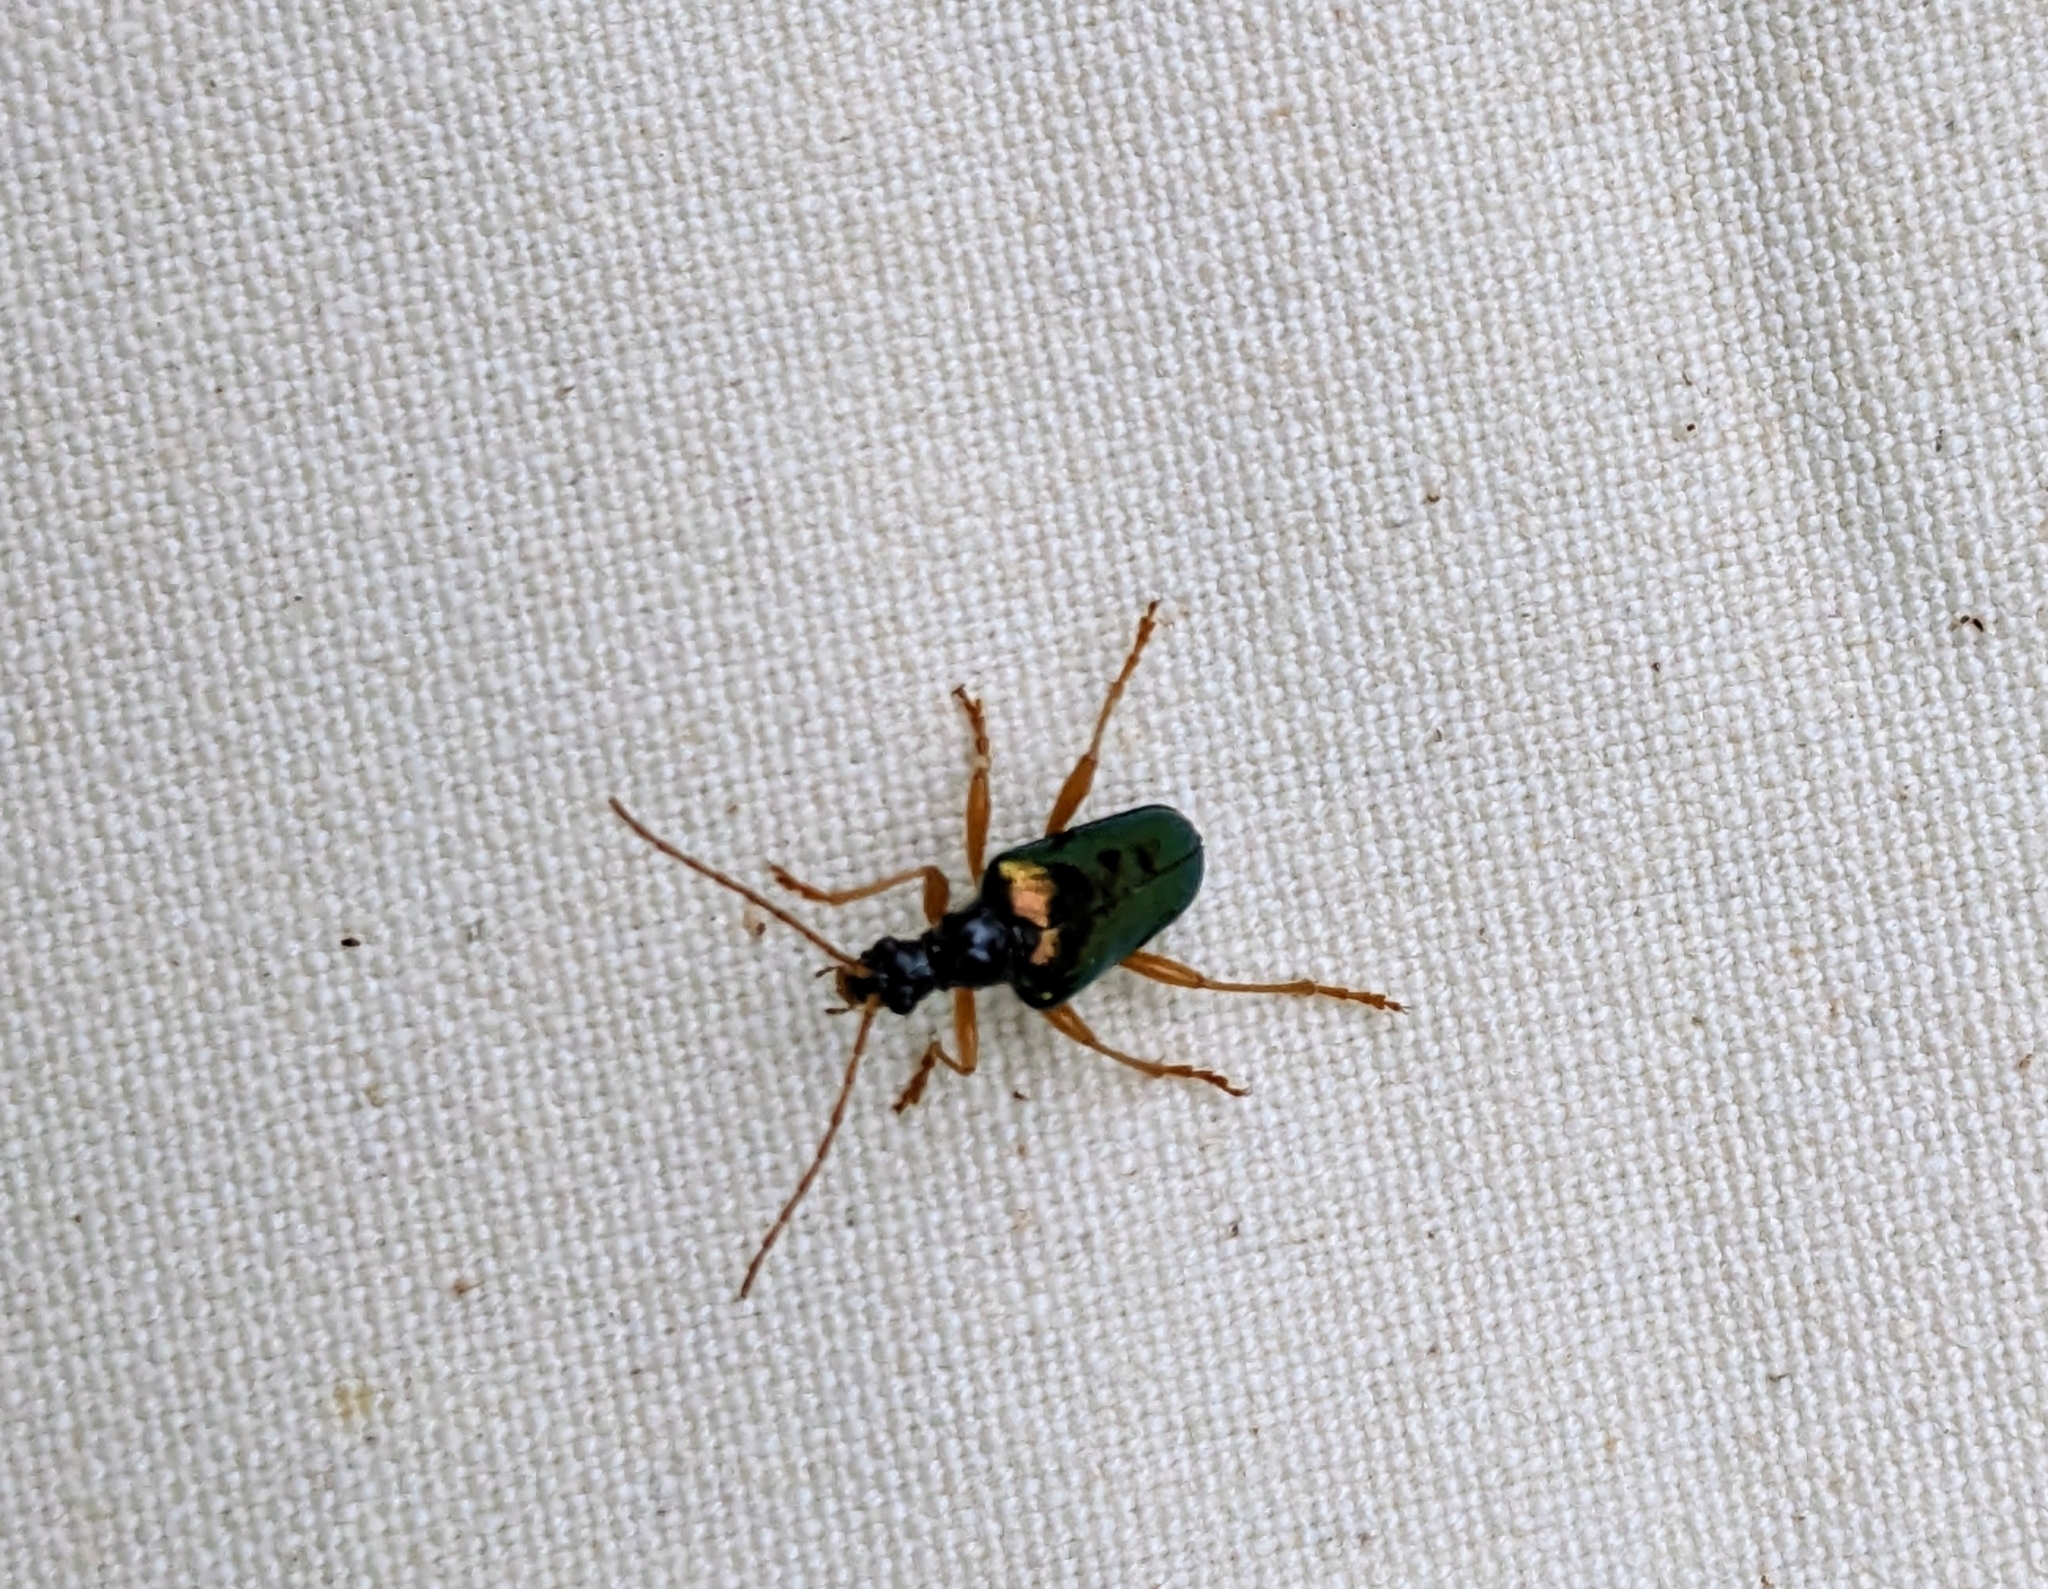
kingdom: Animalia
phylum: Arthropoda
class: Insecta
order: Coleoptera
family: Cerambycidae
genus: Gaurotes
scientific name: Gaurotes cyanipennis
